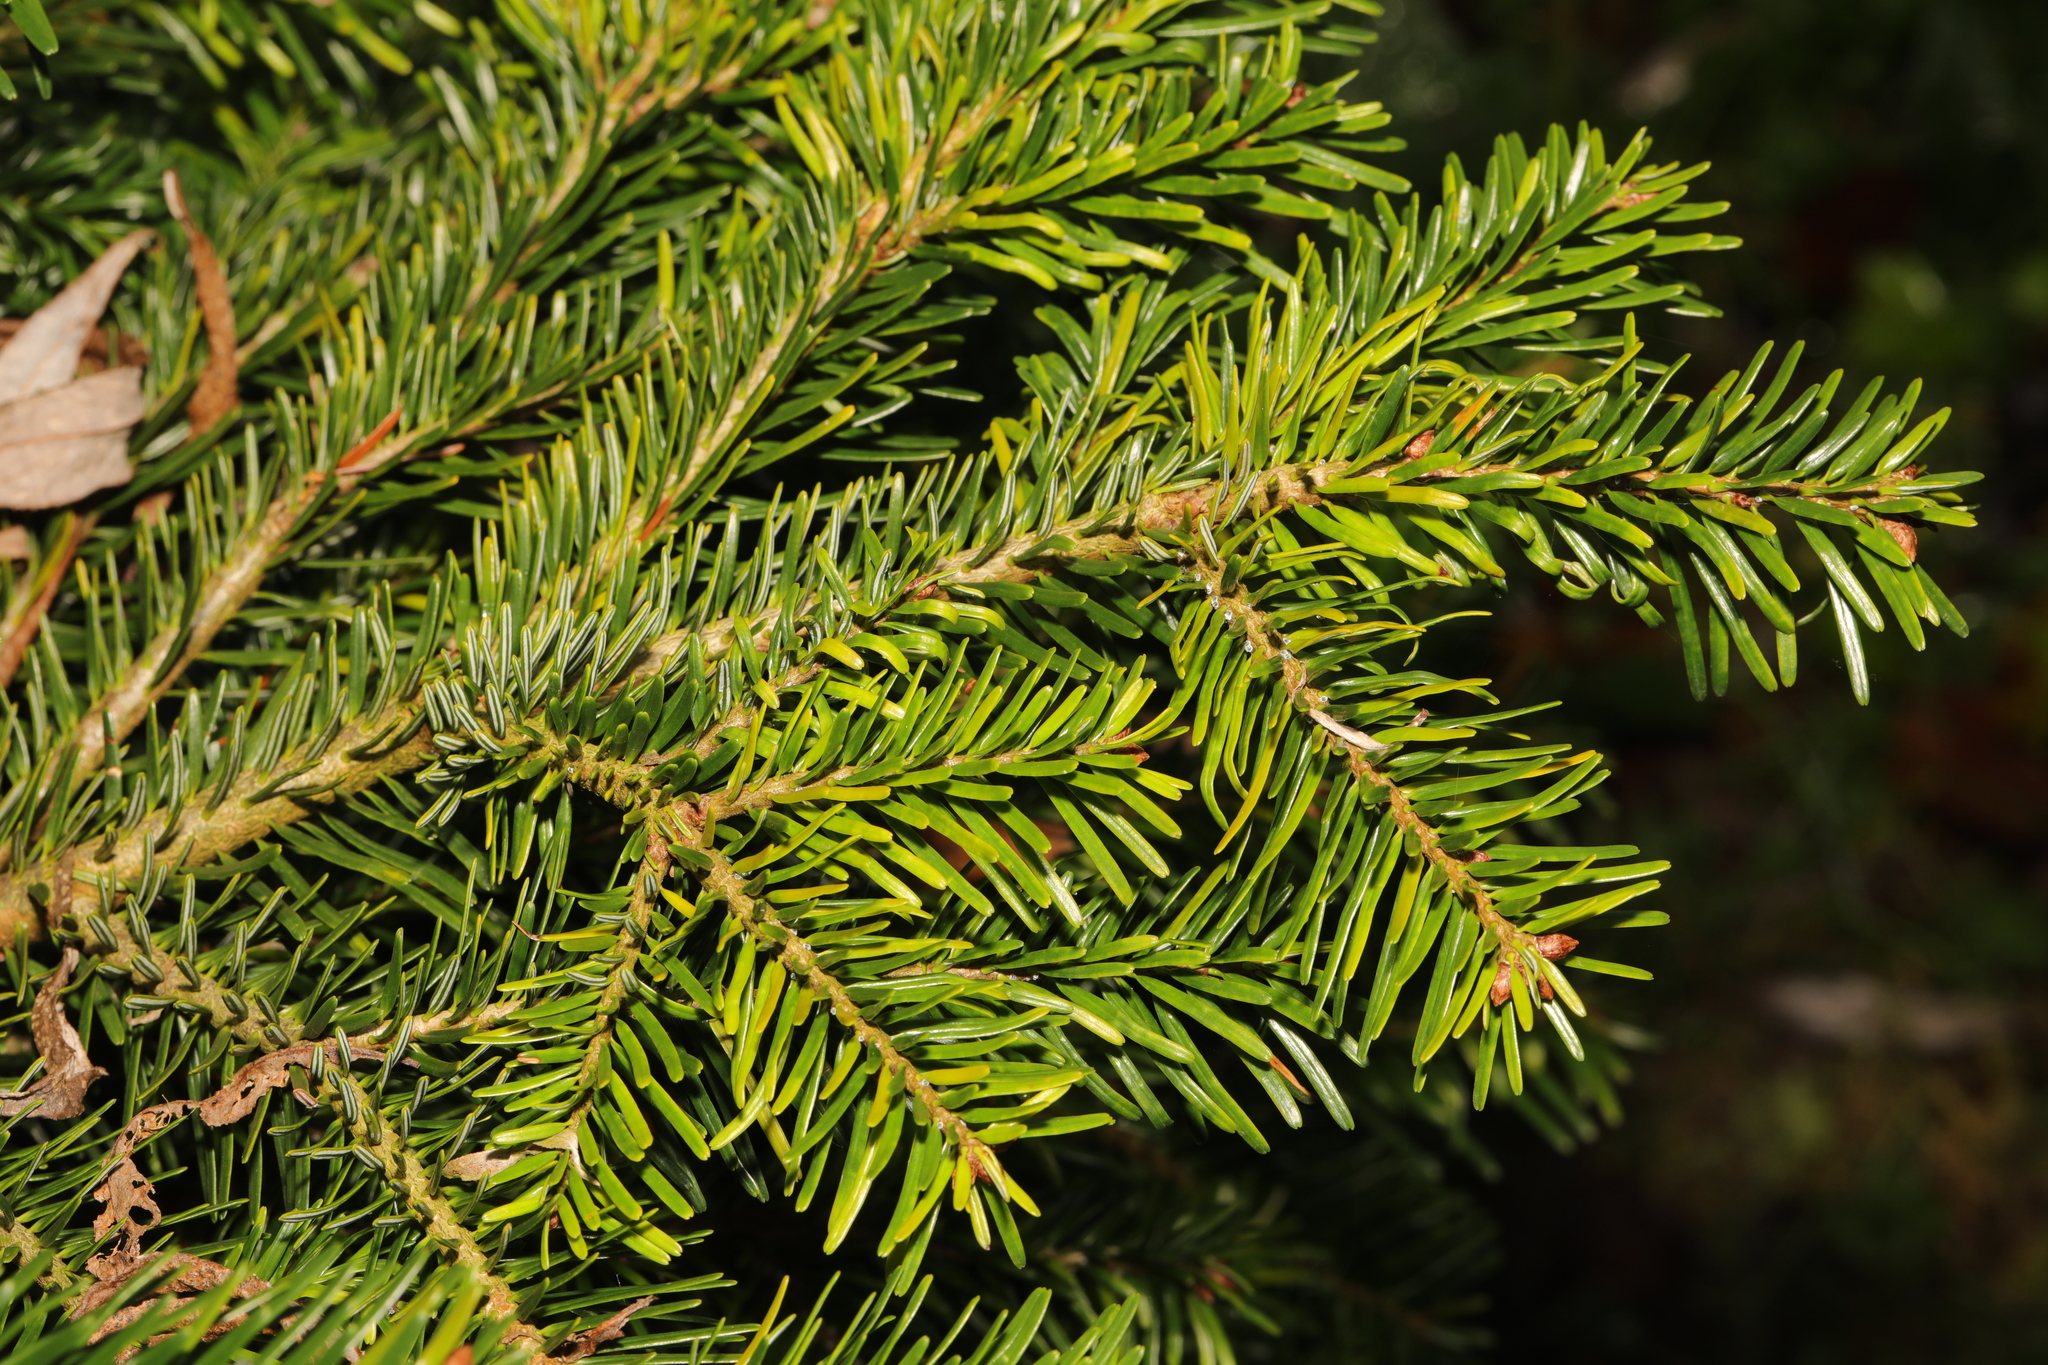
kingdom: Plantae
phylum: Tracheophyta
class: Pinopsida
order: Pinales
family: Pinaceae
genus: Abies
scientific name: Abies alba
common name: Silver fir
